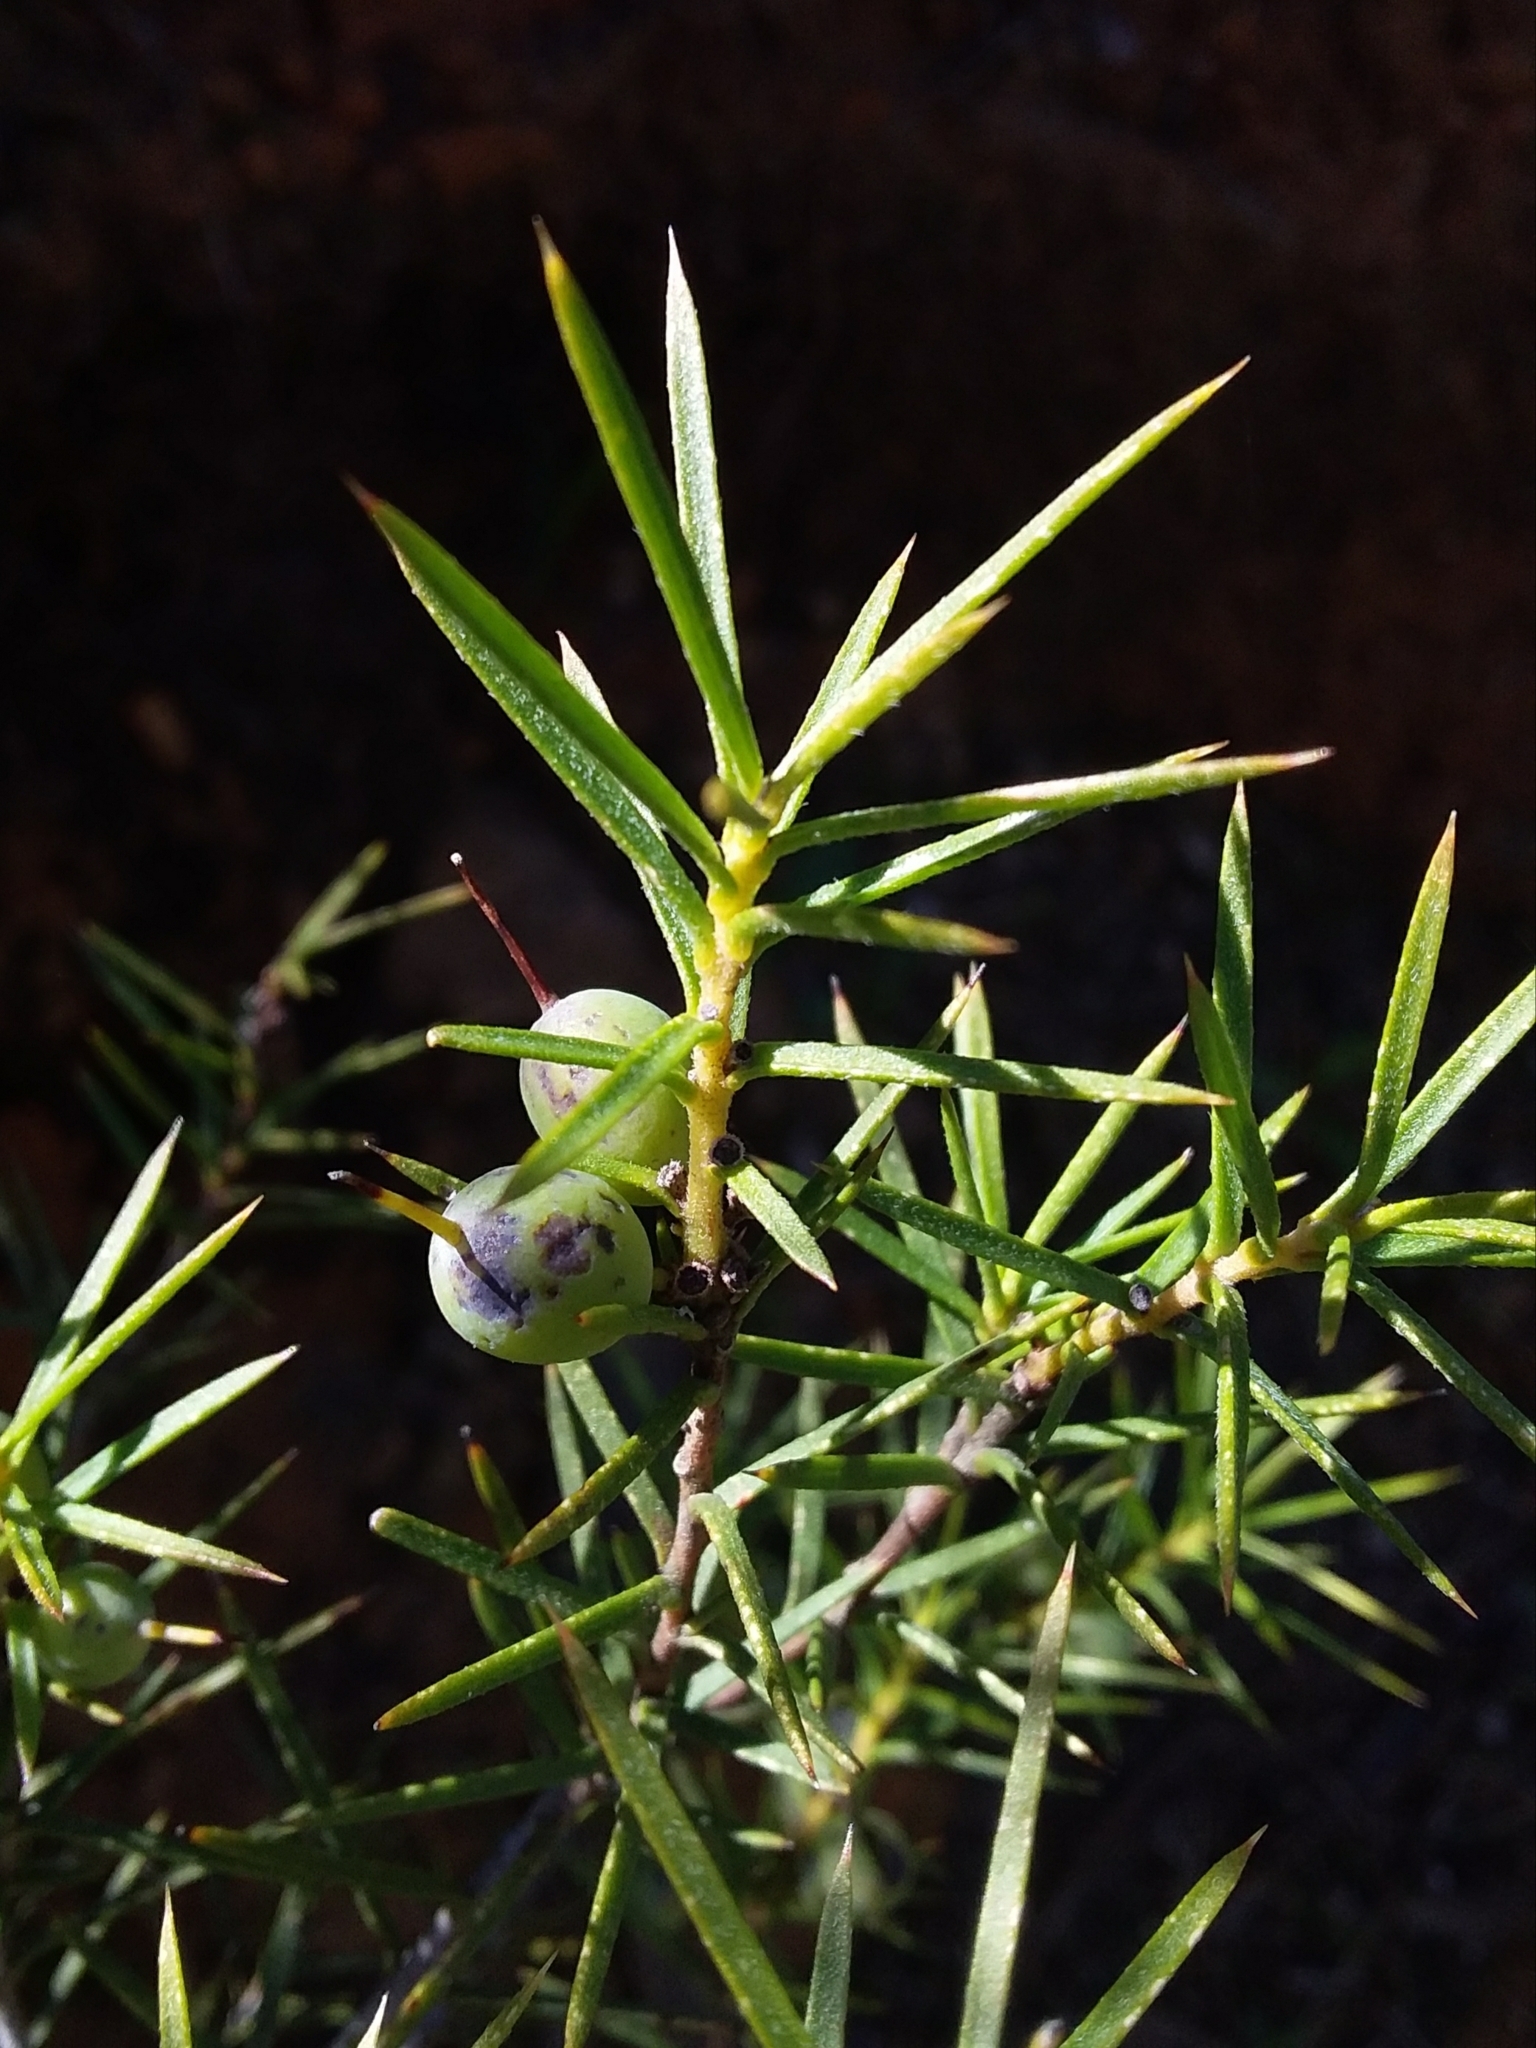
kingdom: Plantae
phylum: Tracheophyta
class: Magnoliopsida
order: Proteales
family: Proteaceae
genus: Persoonia
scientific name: Persoonia juniperina
